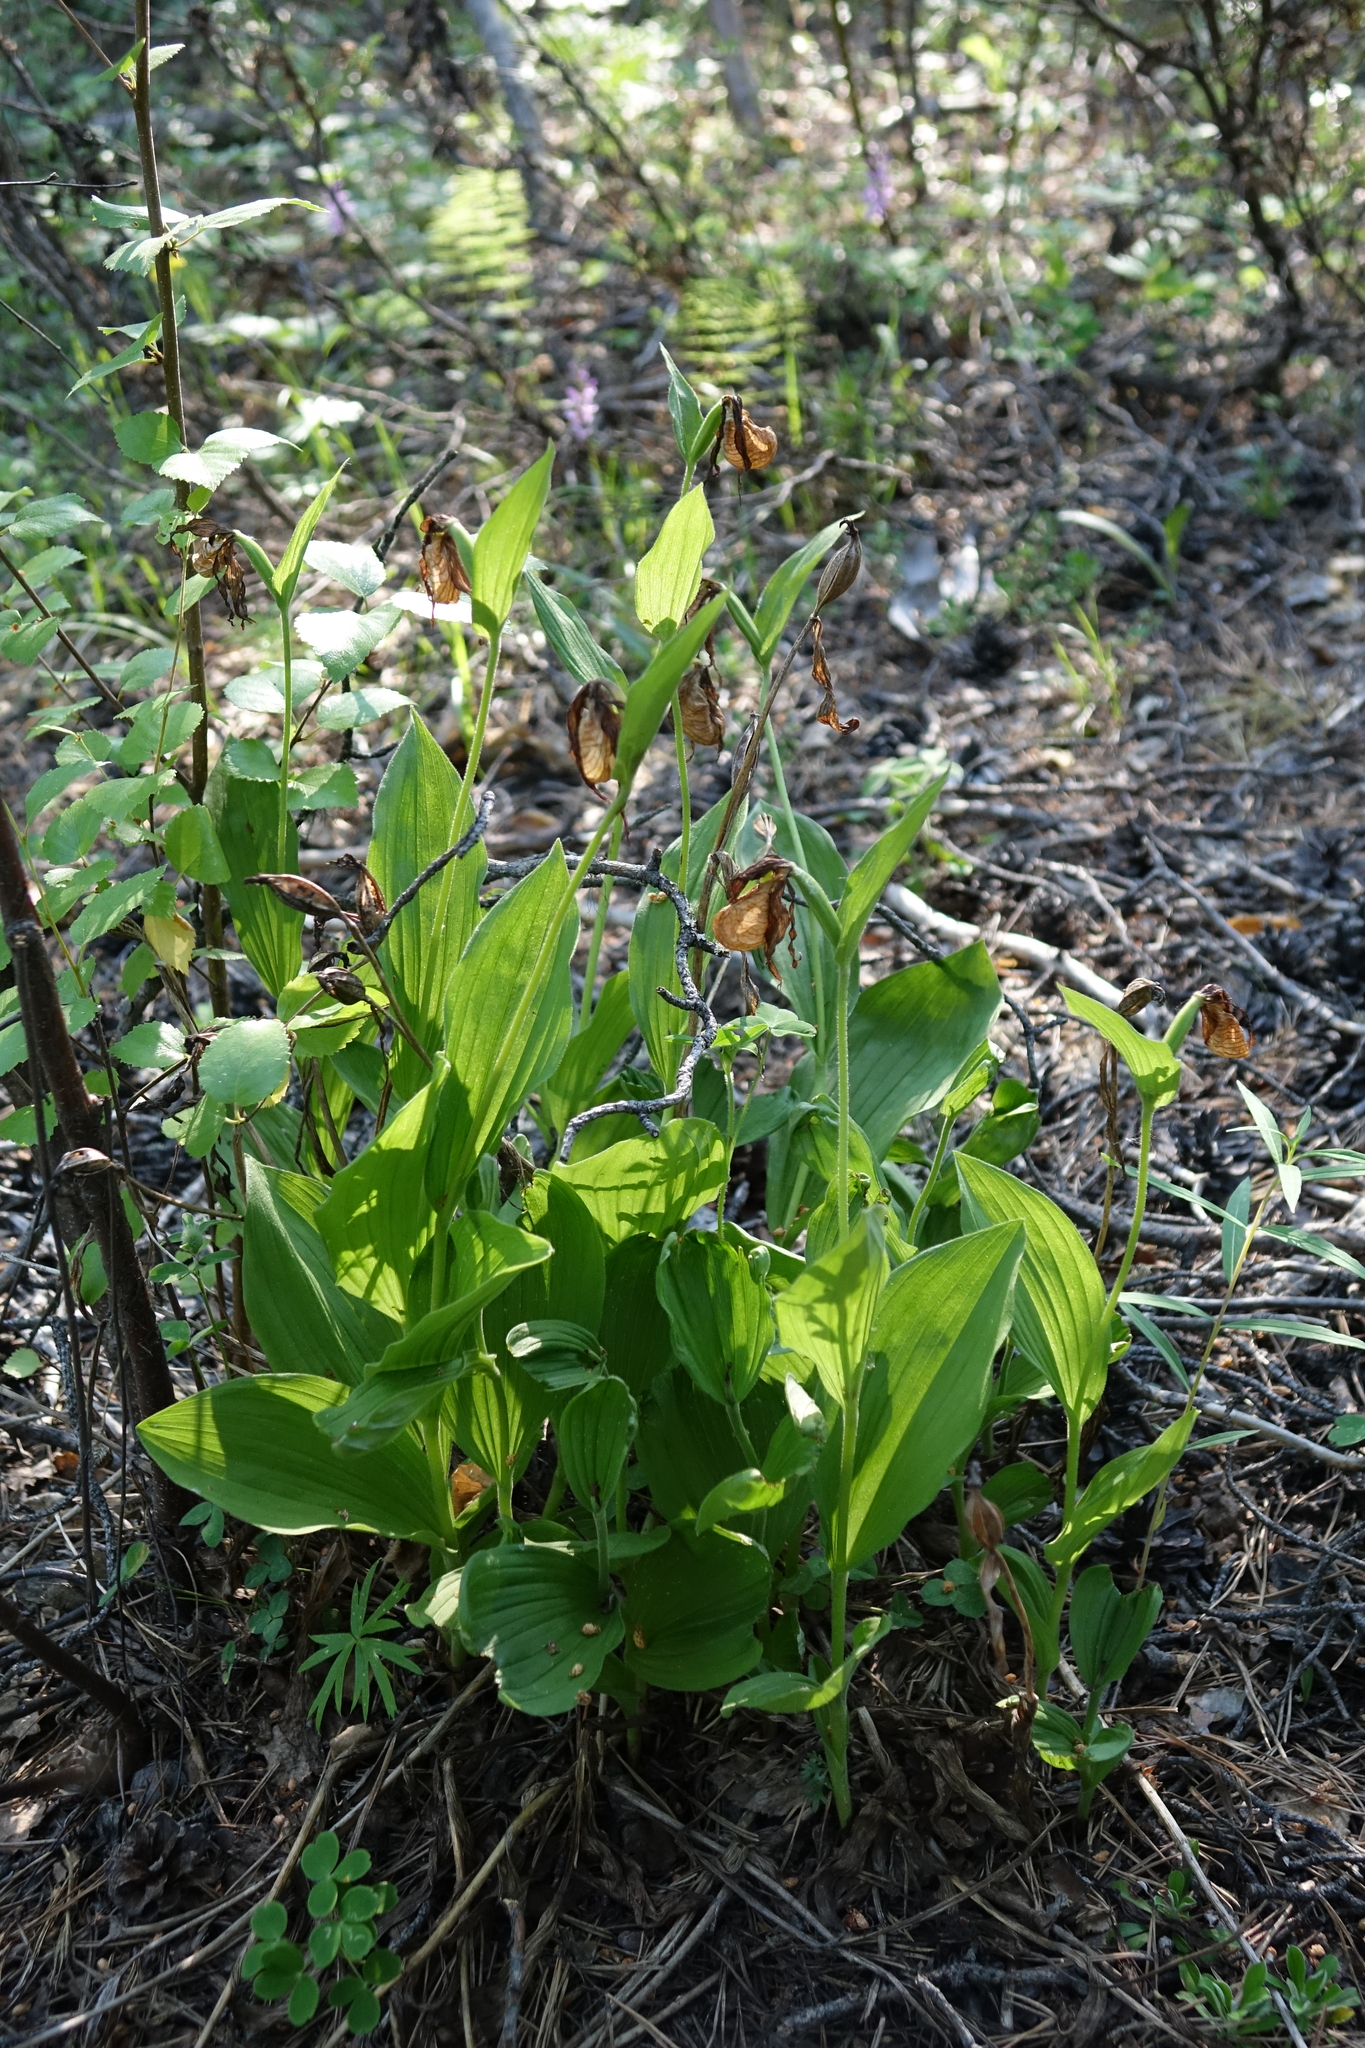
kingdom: Plantae
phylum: Tracheophyta
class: Liliopsida
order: Asparagales
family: Orchidaceae
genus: Cypripedium
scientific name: Cypripedium calceolus
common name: Lady's-slipper
